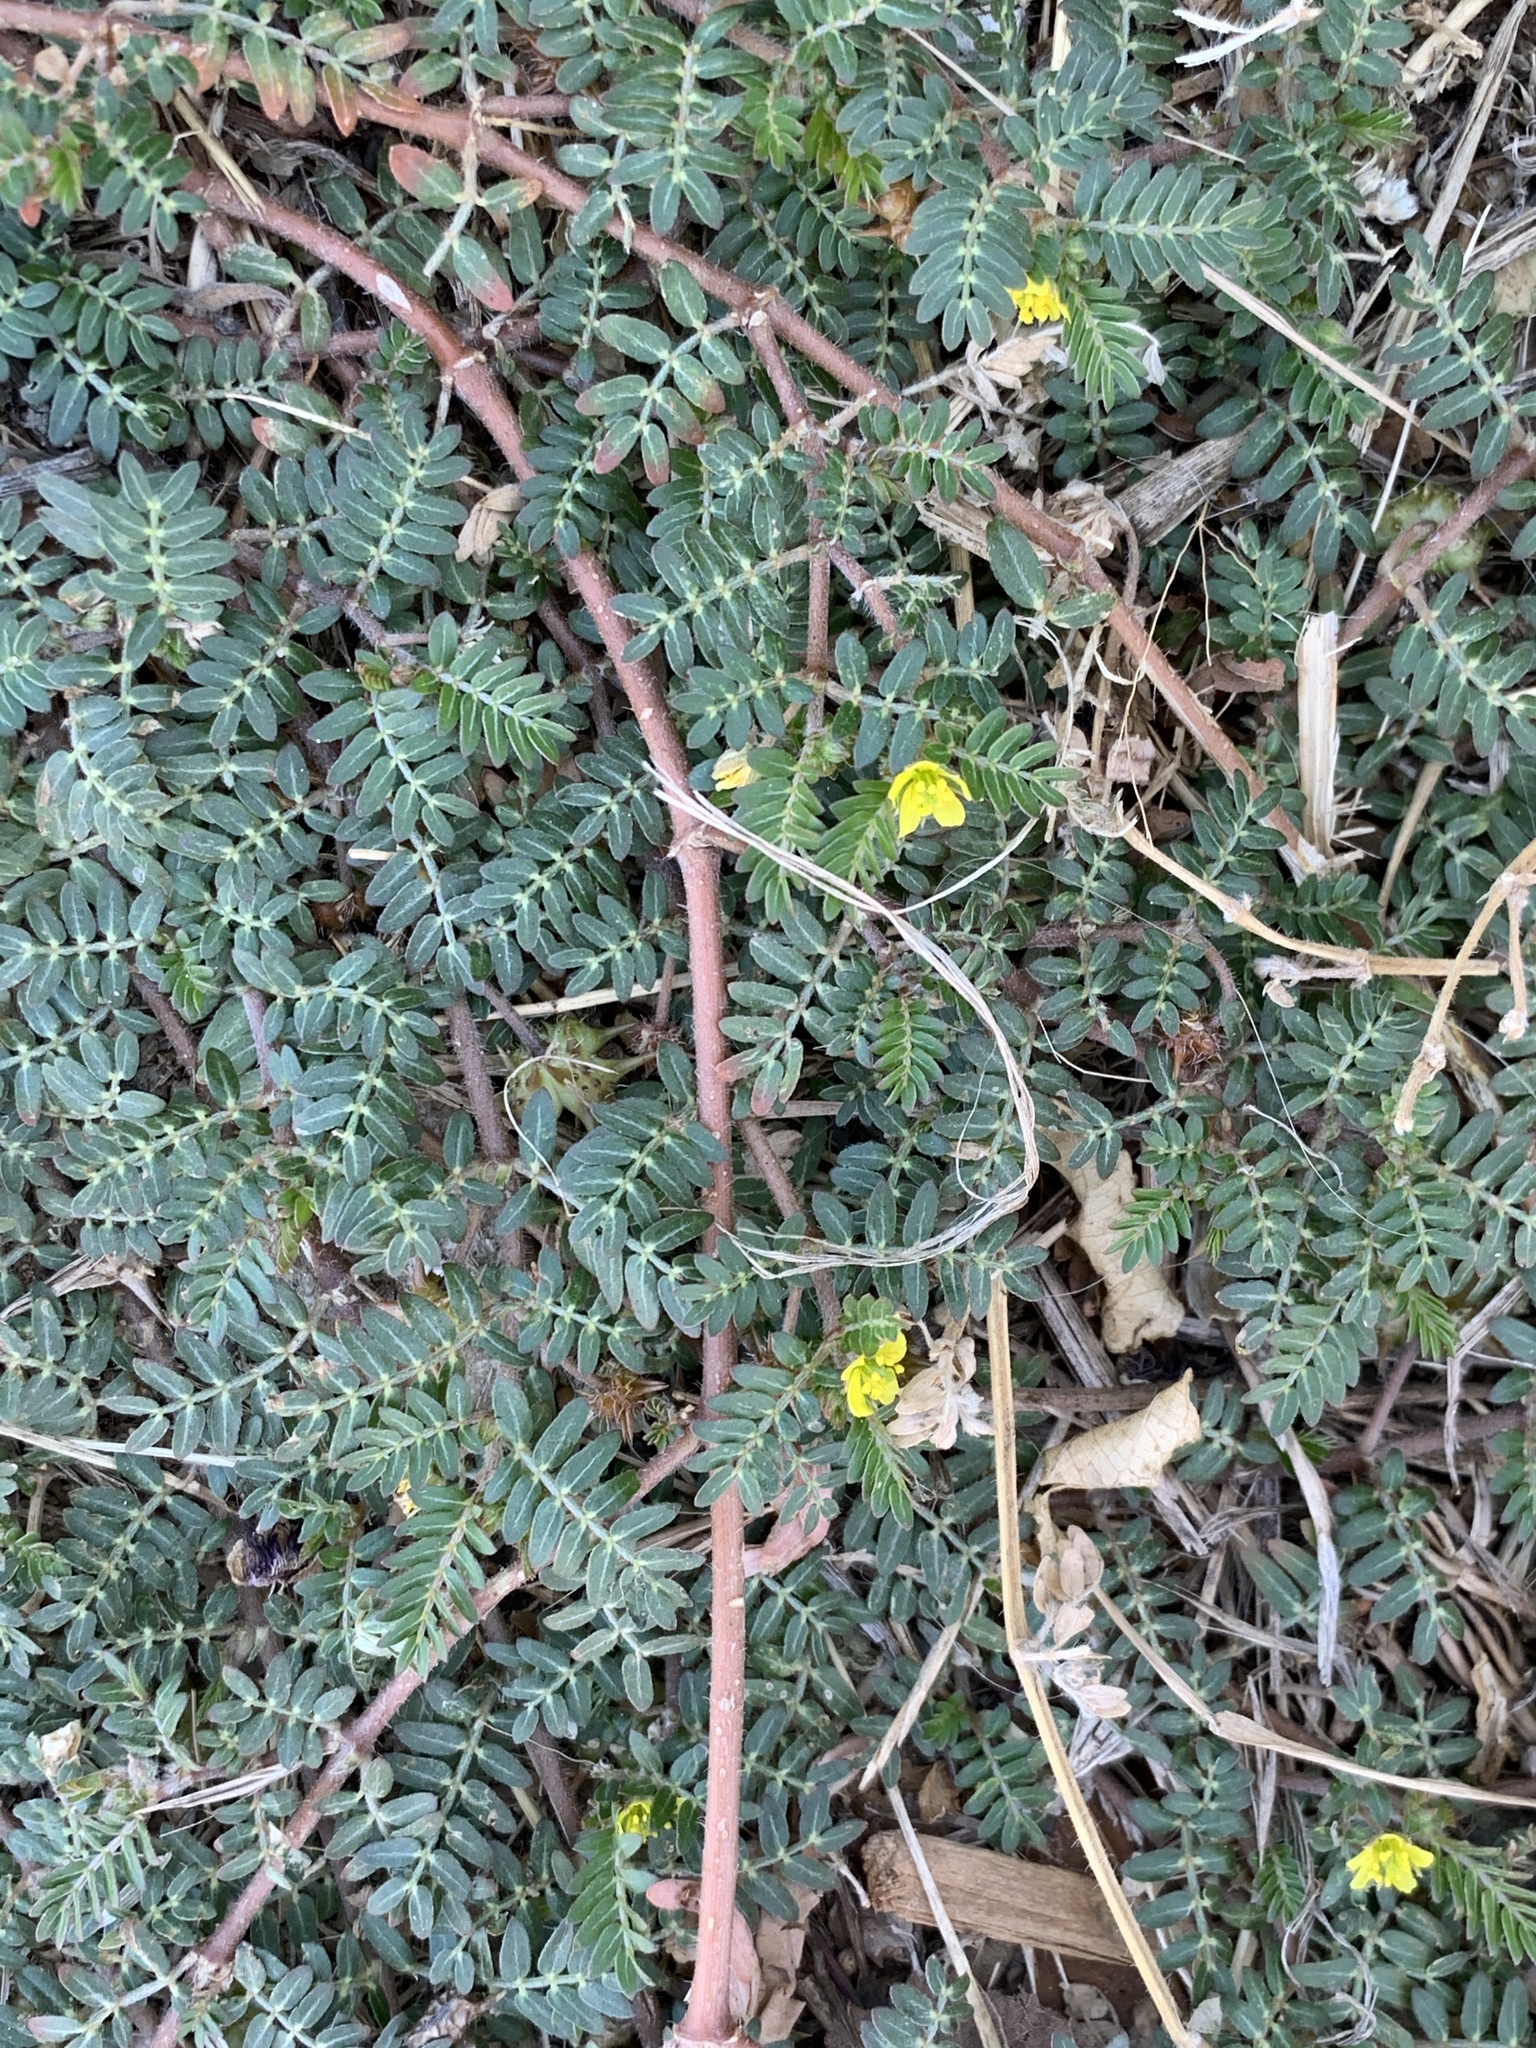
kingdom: Plantae
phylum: Tracheophyta
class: Magnoliopsida
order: Zygophyllales
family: Zygophyllaceae
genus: Tribulus
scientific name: Tribulus terrestris
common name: Puncturevine
